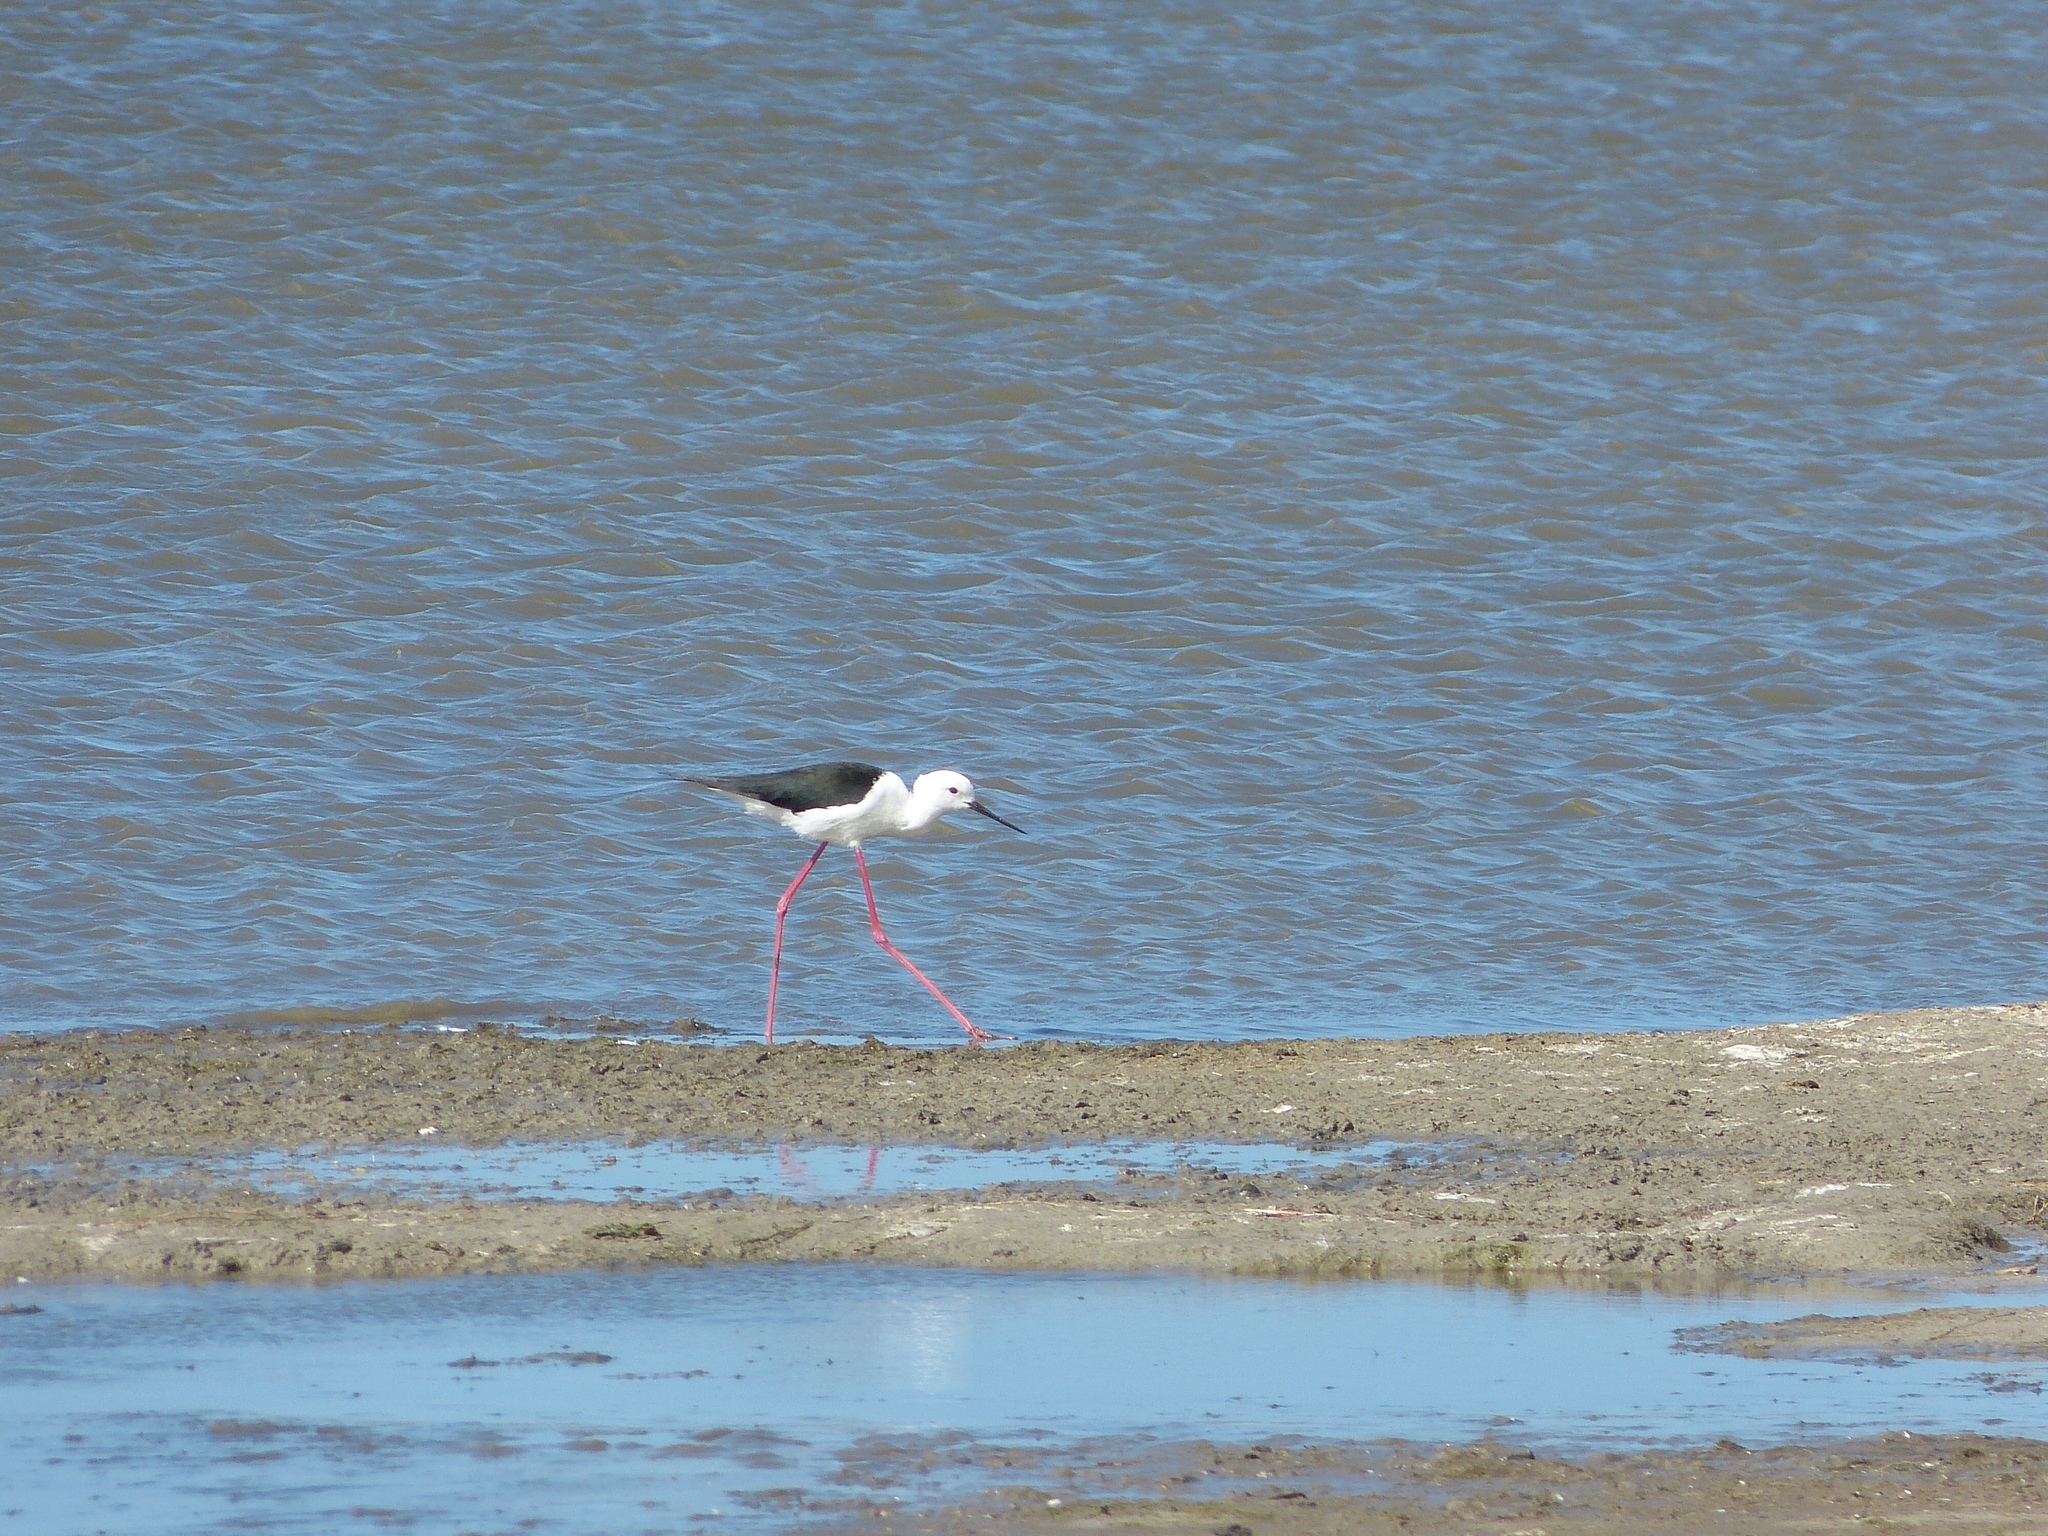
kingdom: Animalia
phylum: Chordata
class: Aves
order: Charadriiformes
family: Recurvirostridae
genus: Himantopus
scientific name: Himantopus himantopus
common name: Black-winged stilt
